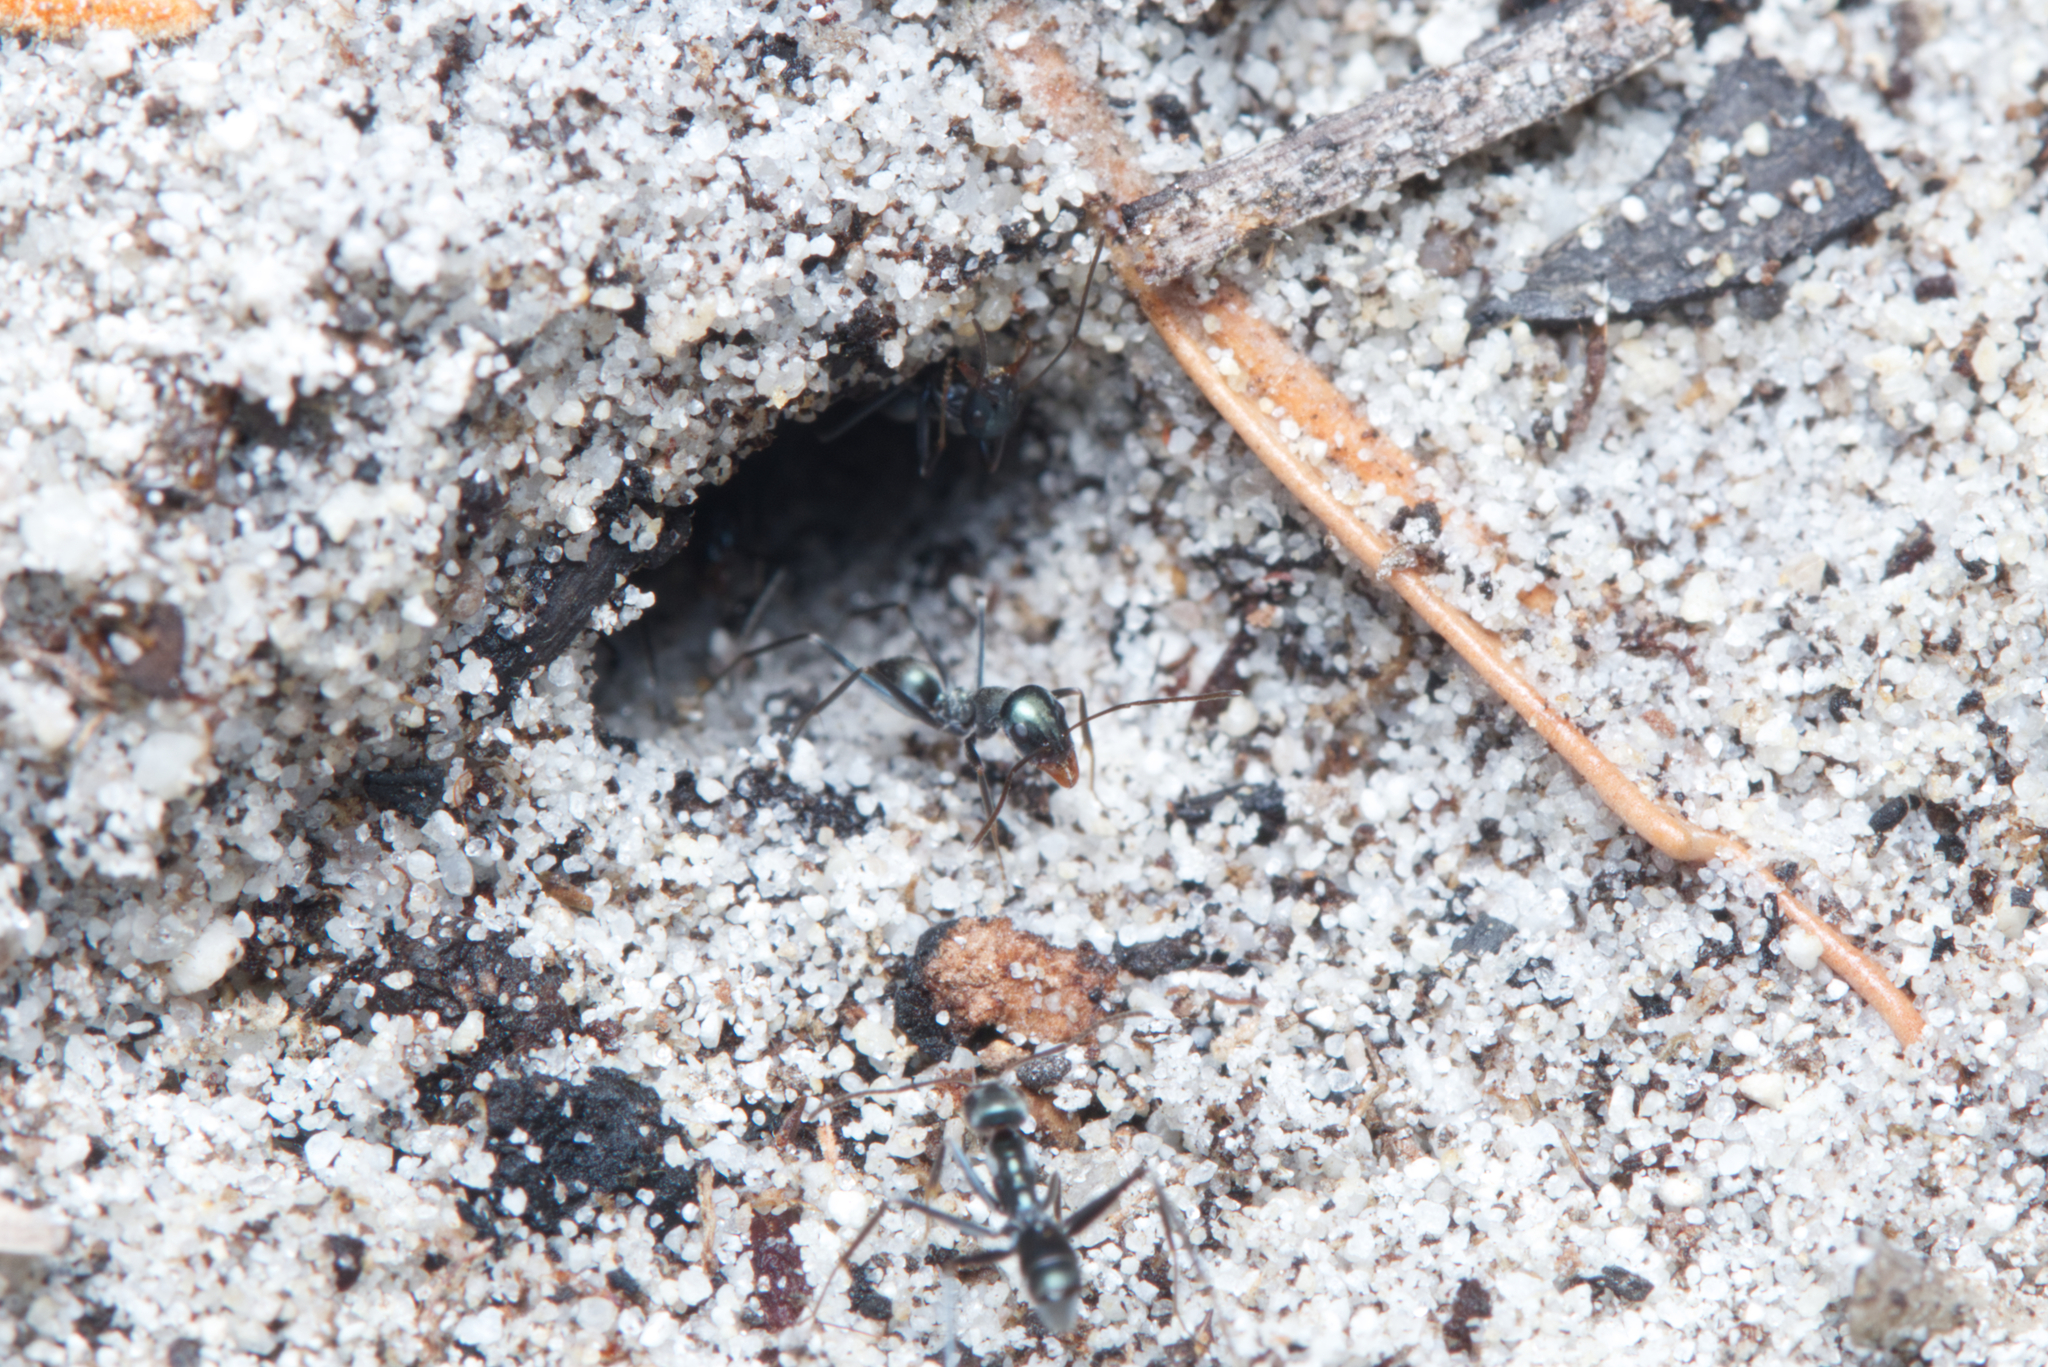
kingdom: Animalia
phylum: Arthropoda
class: Insecta
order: Hymenoptera
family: Formicidae
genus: Iridomyrmex
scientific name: Iridomyrmex bicknelli
